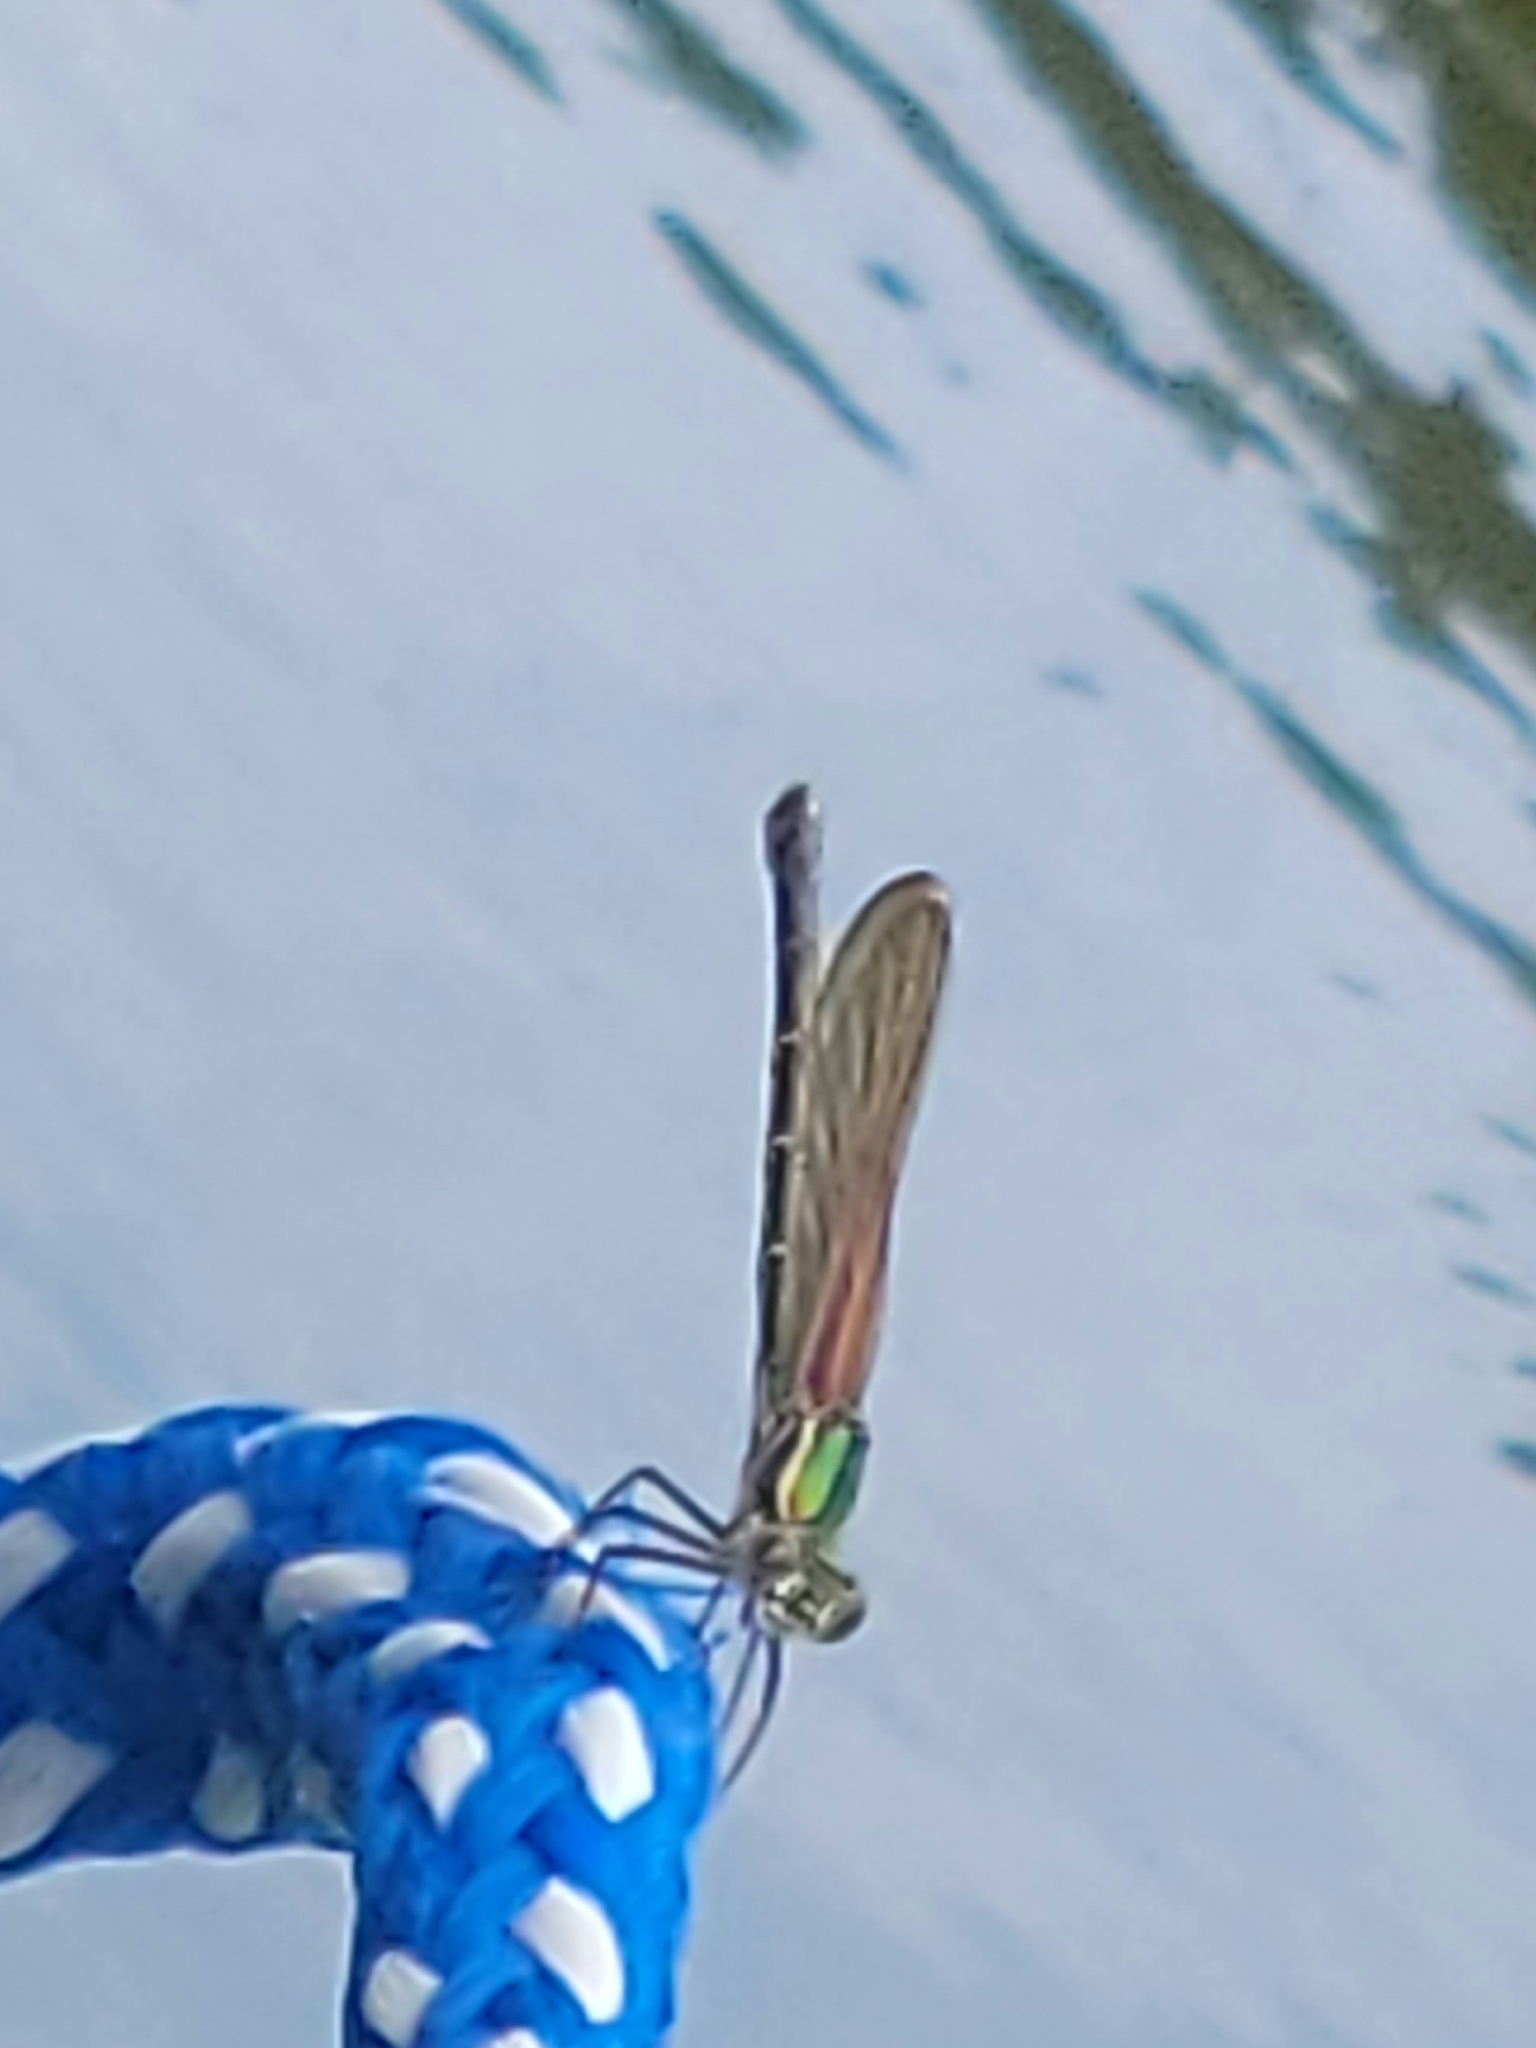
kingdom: Animalia
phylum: Arthropoda
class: Insecta
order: Odonata
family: Calopterygidae
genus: Hetaerina
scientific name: Hetaerina americana
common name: American rubyspot
